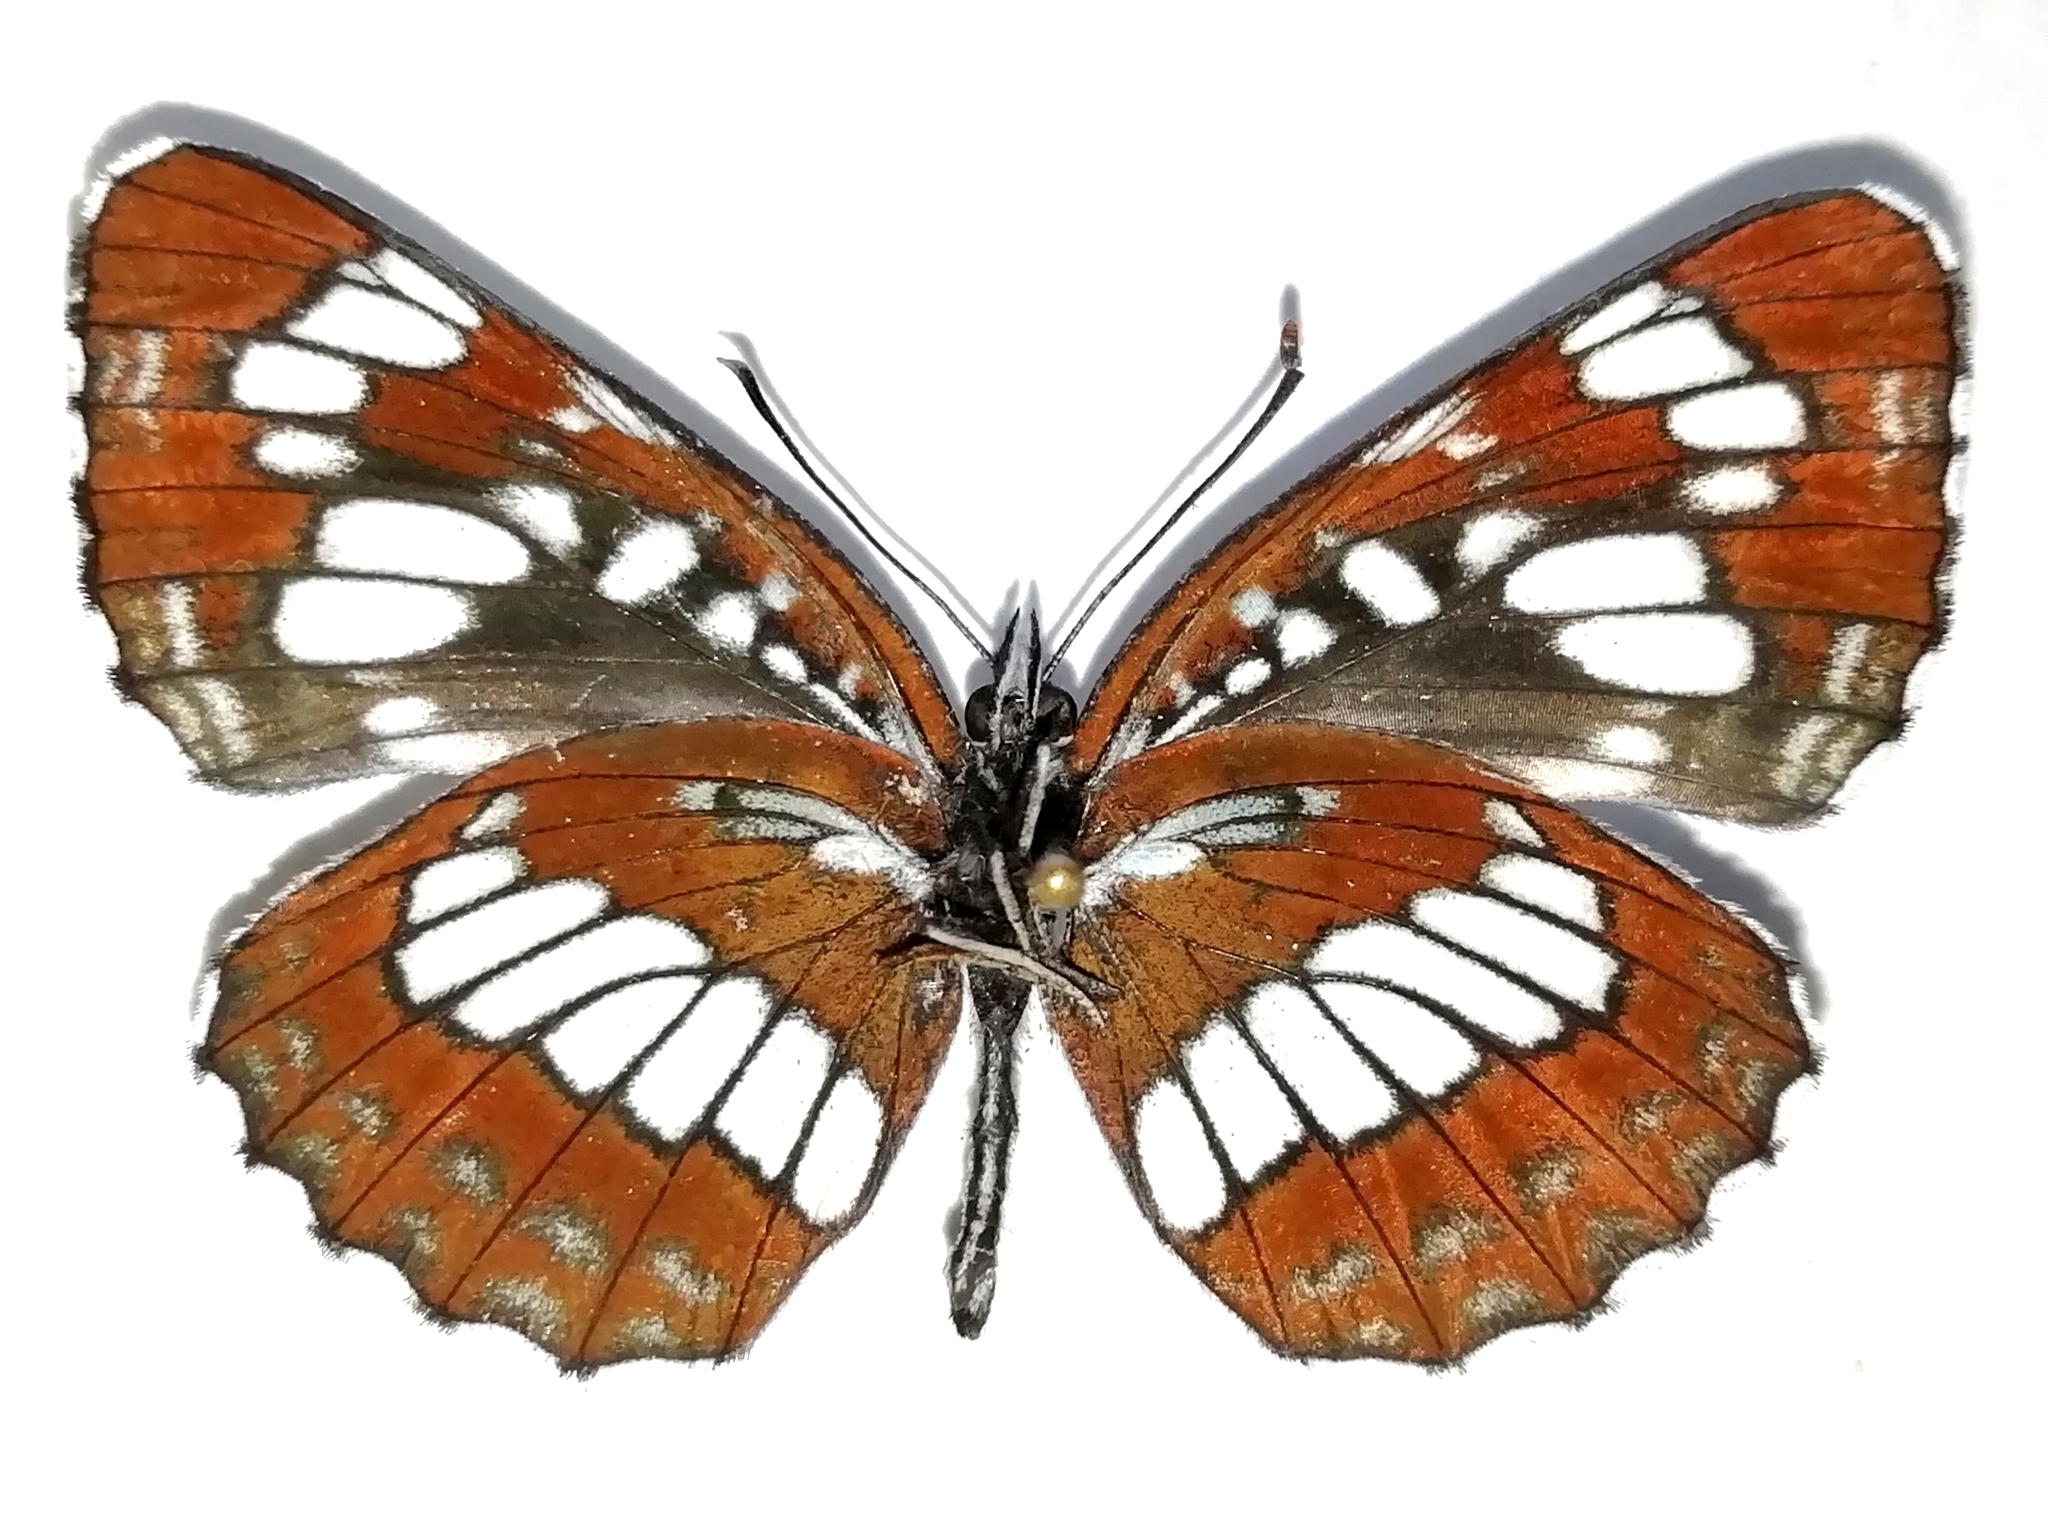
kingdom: Animalia
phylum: Arthropoda
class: Insecta
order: Lepidoptera
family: Nymphalidae
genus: Neptis
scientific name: Neptis rivularis
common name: Hungarian glider
